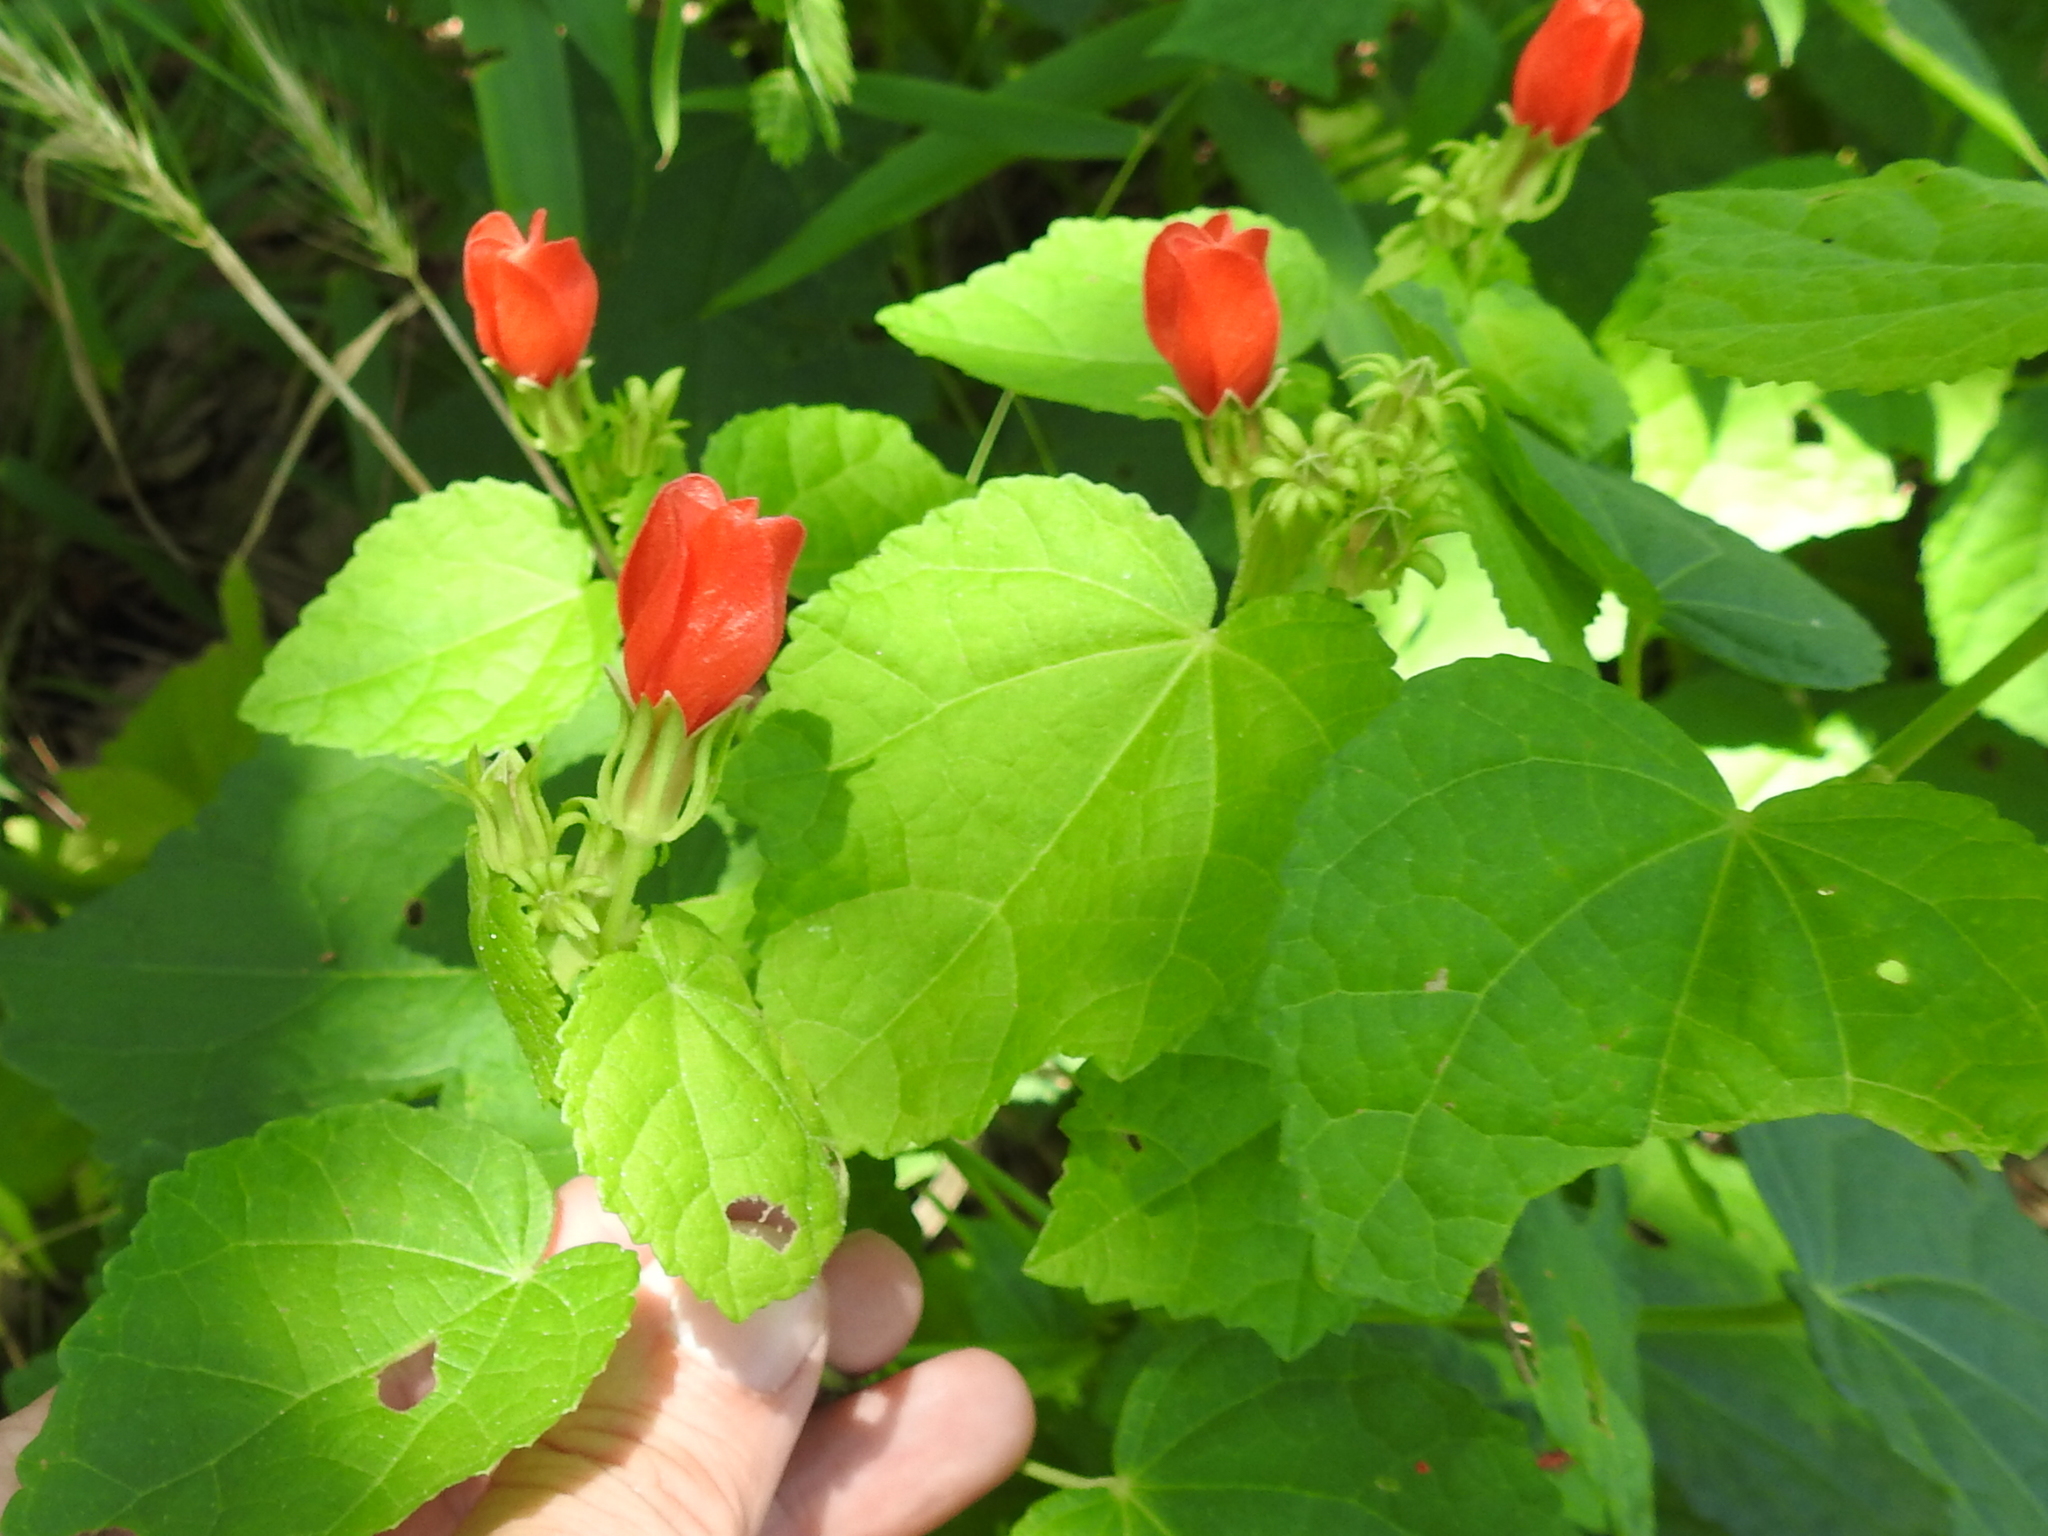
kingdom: Plantae
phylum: Tracheophyta
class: Magnoliopsida
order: Malvales
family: Malvaceae
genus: Malvaviscus
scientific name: Malvaviscus arboreus
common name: Wax mallow
